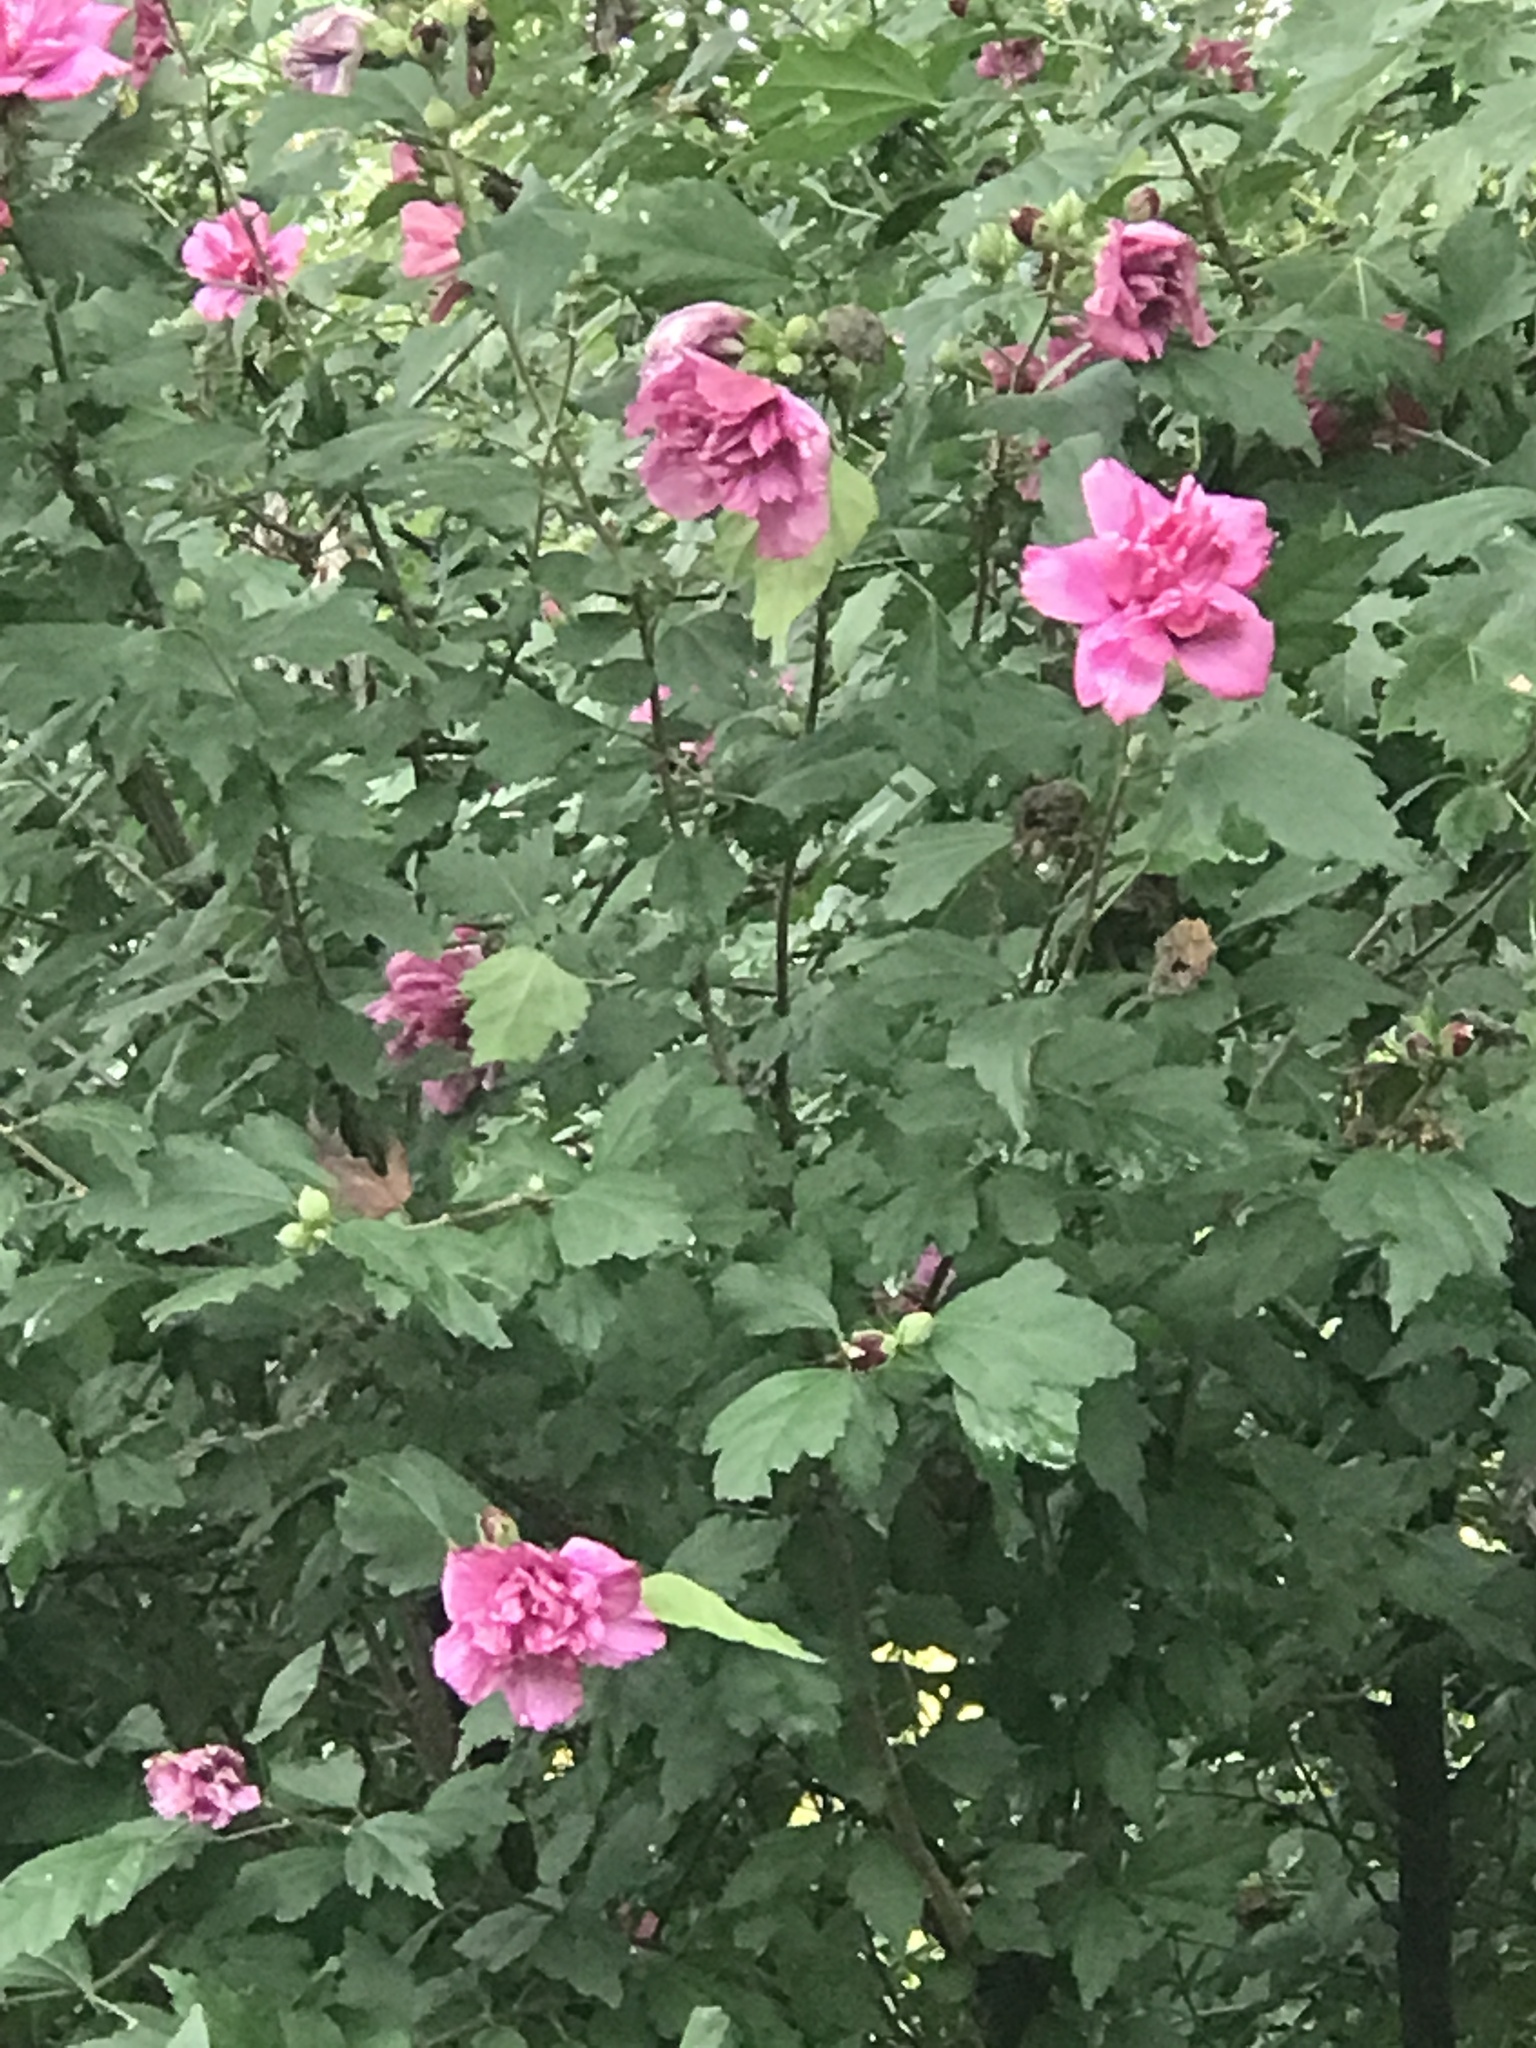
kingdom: Plantae
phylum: Tracheophyta
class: Magnoliopsida
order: Malvales
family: Malvaceae
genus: Hibiscus
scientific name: Hibiscus syriacus
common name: Syrian ketmia
